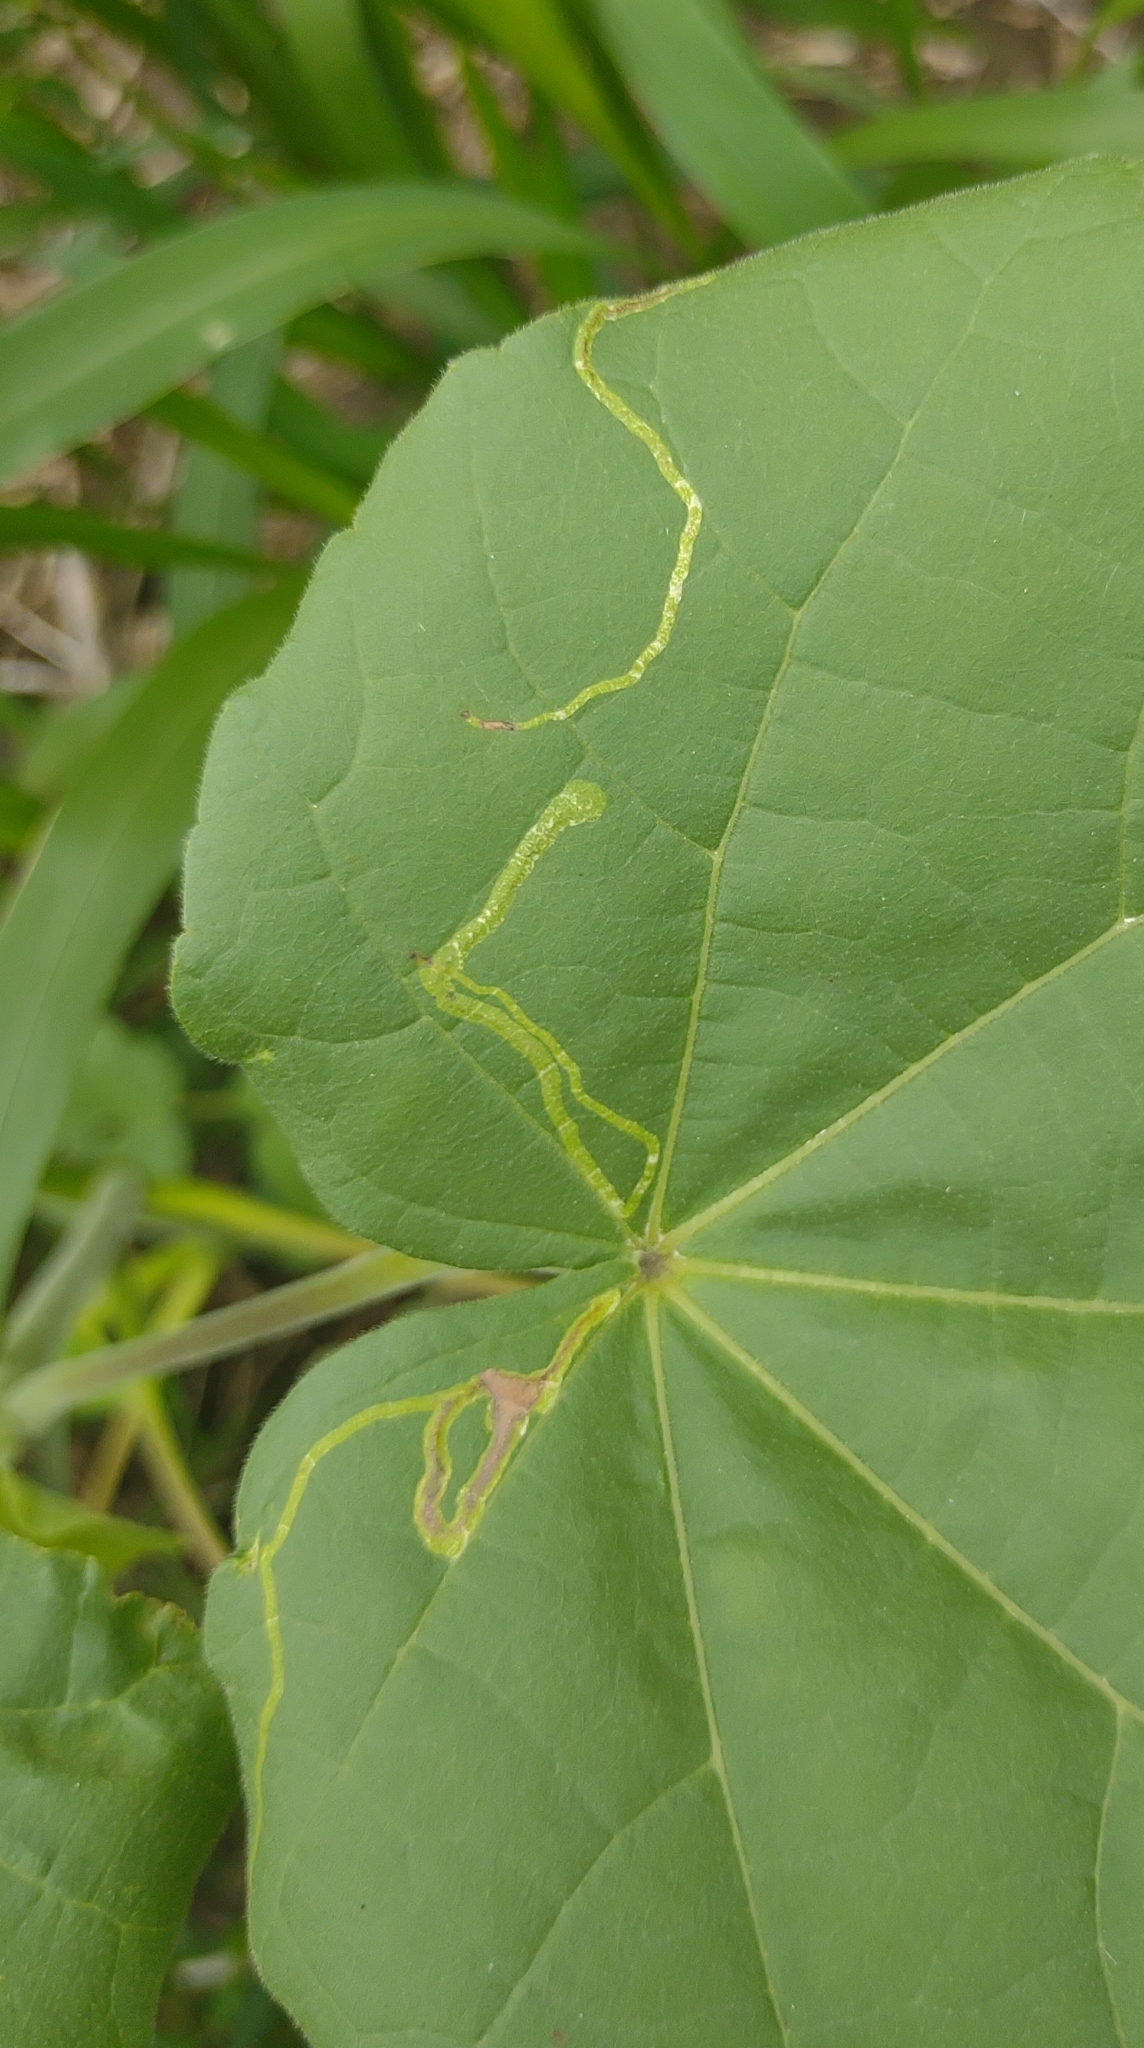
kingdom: Animalia
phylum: Arthropoda
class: Insecta
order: Diptera
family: Agromyzidae
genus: Calycomyza
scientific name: Calycomyza malvae
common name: Mallow leaf miner
